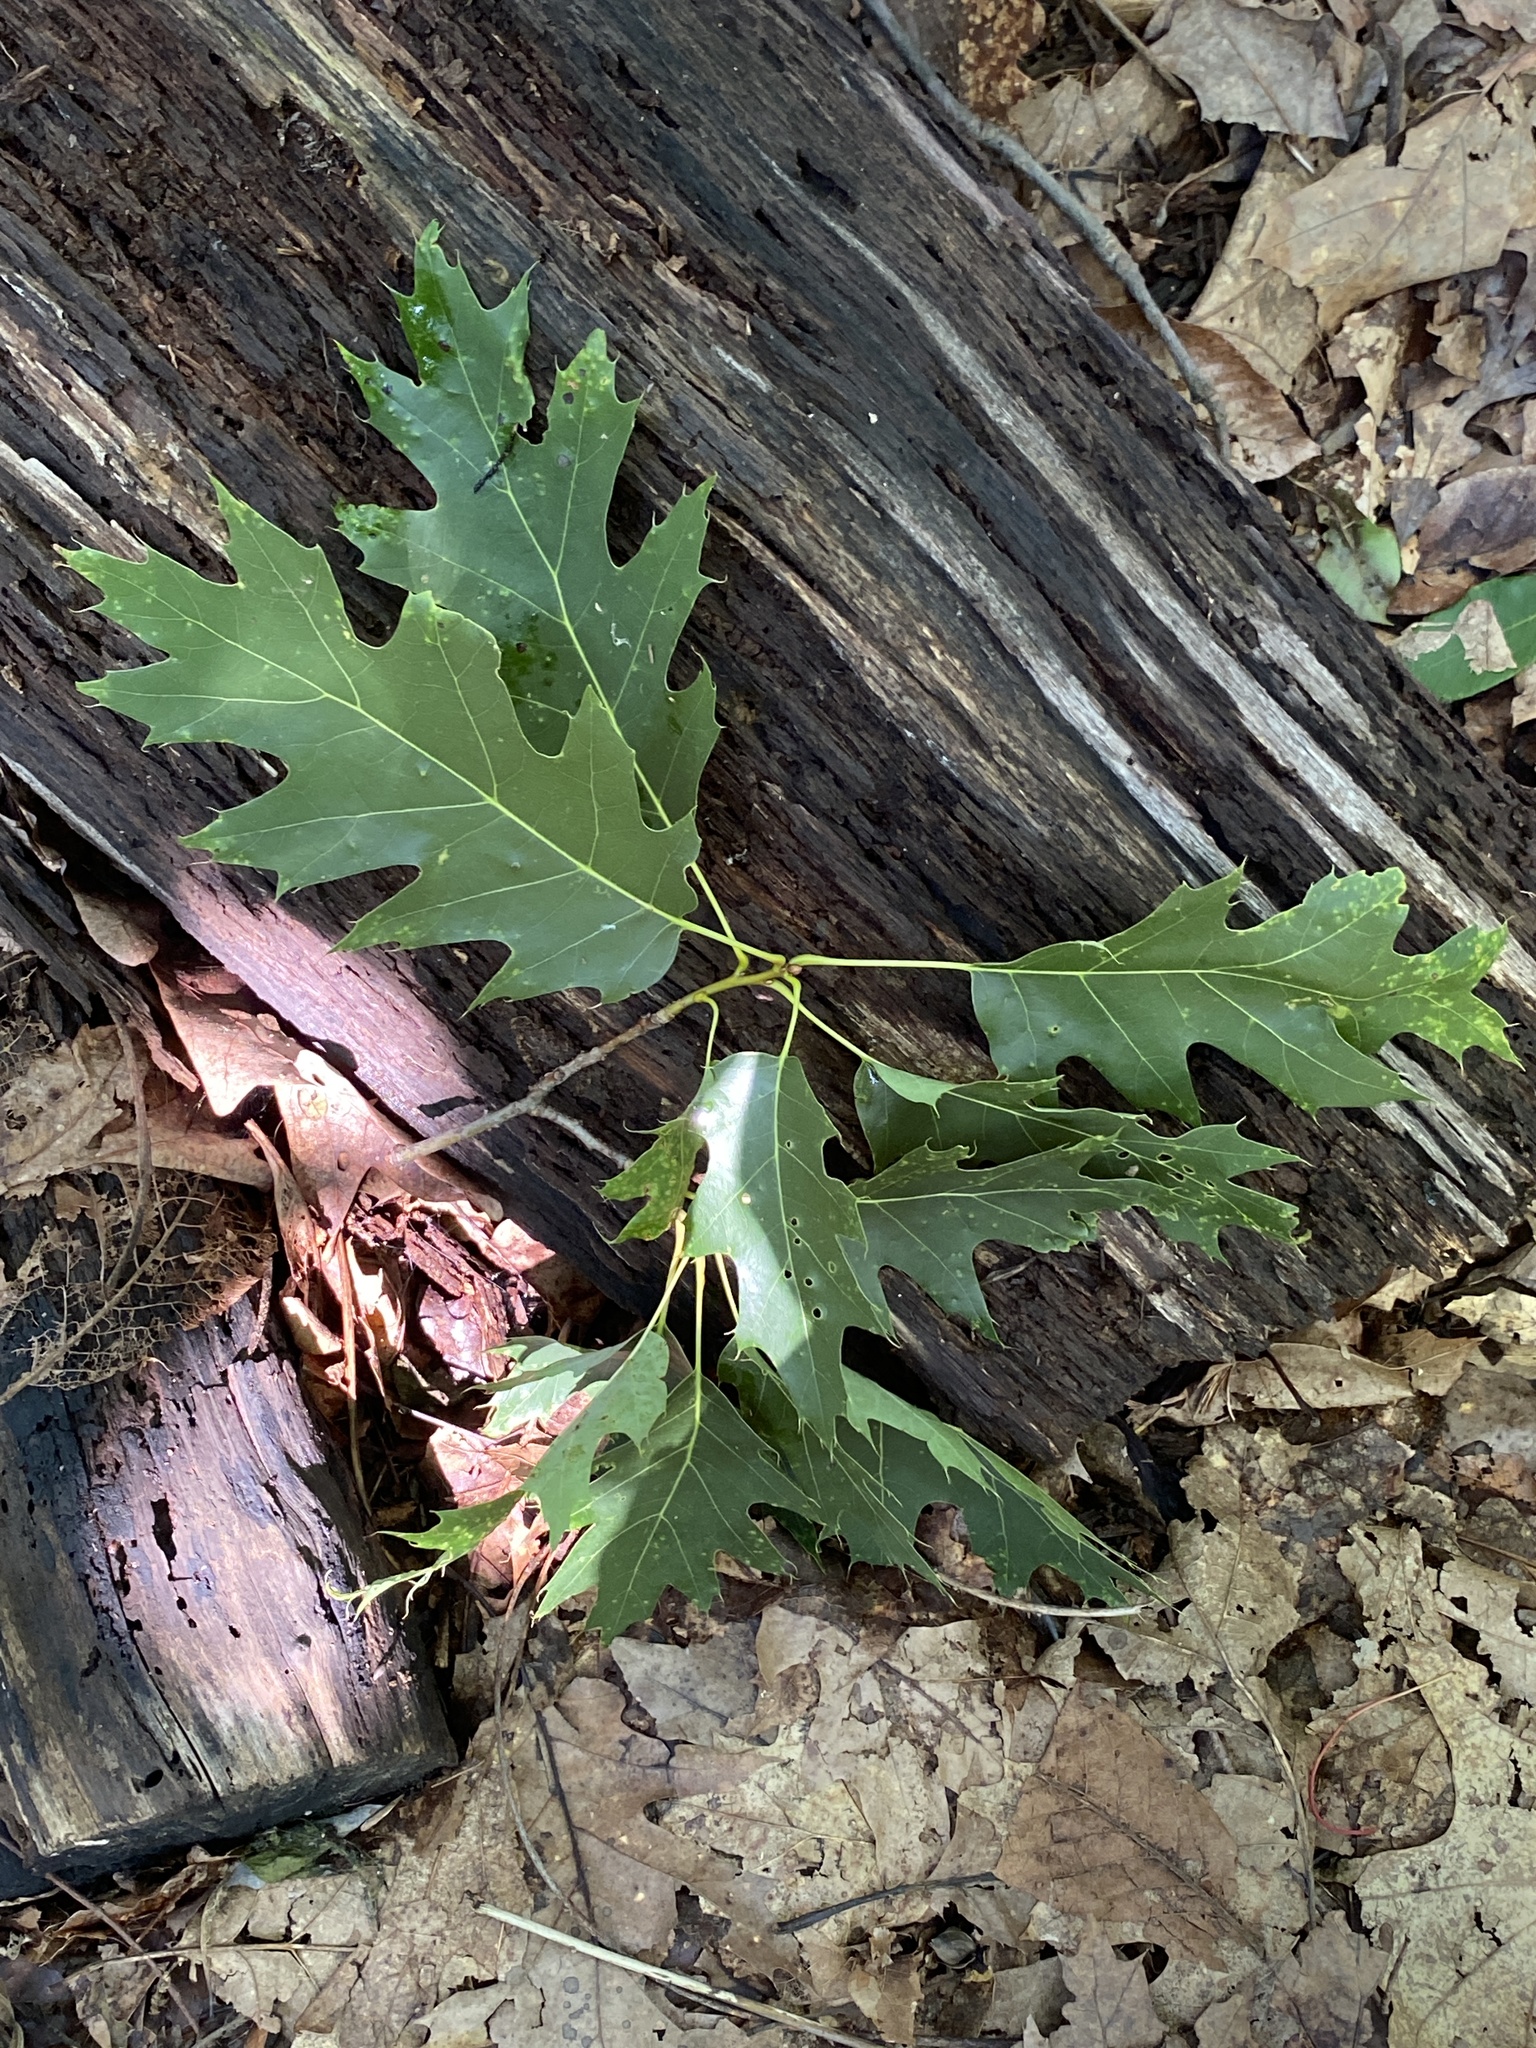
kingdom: Plantae
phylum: Tracheophyta
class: Magnoliopsida
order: Fagales
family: Fagaceae
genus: Quercus
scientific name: Quercus rubra
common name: Red oak
